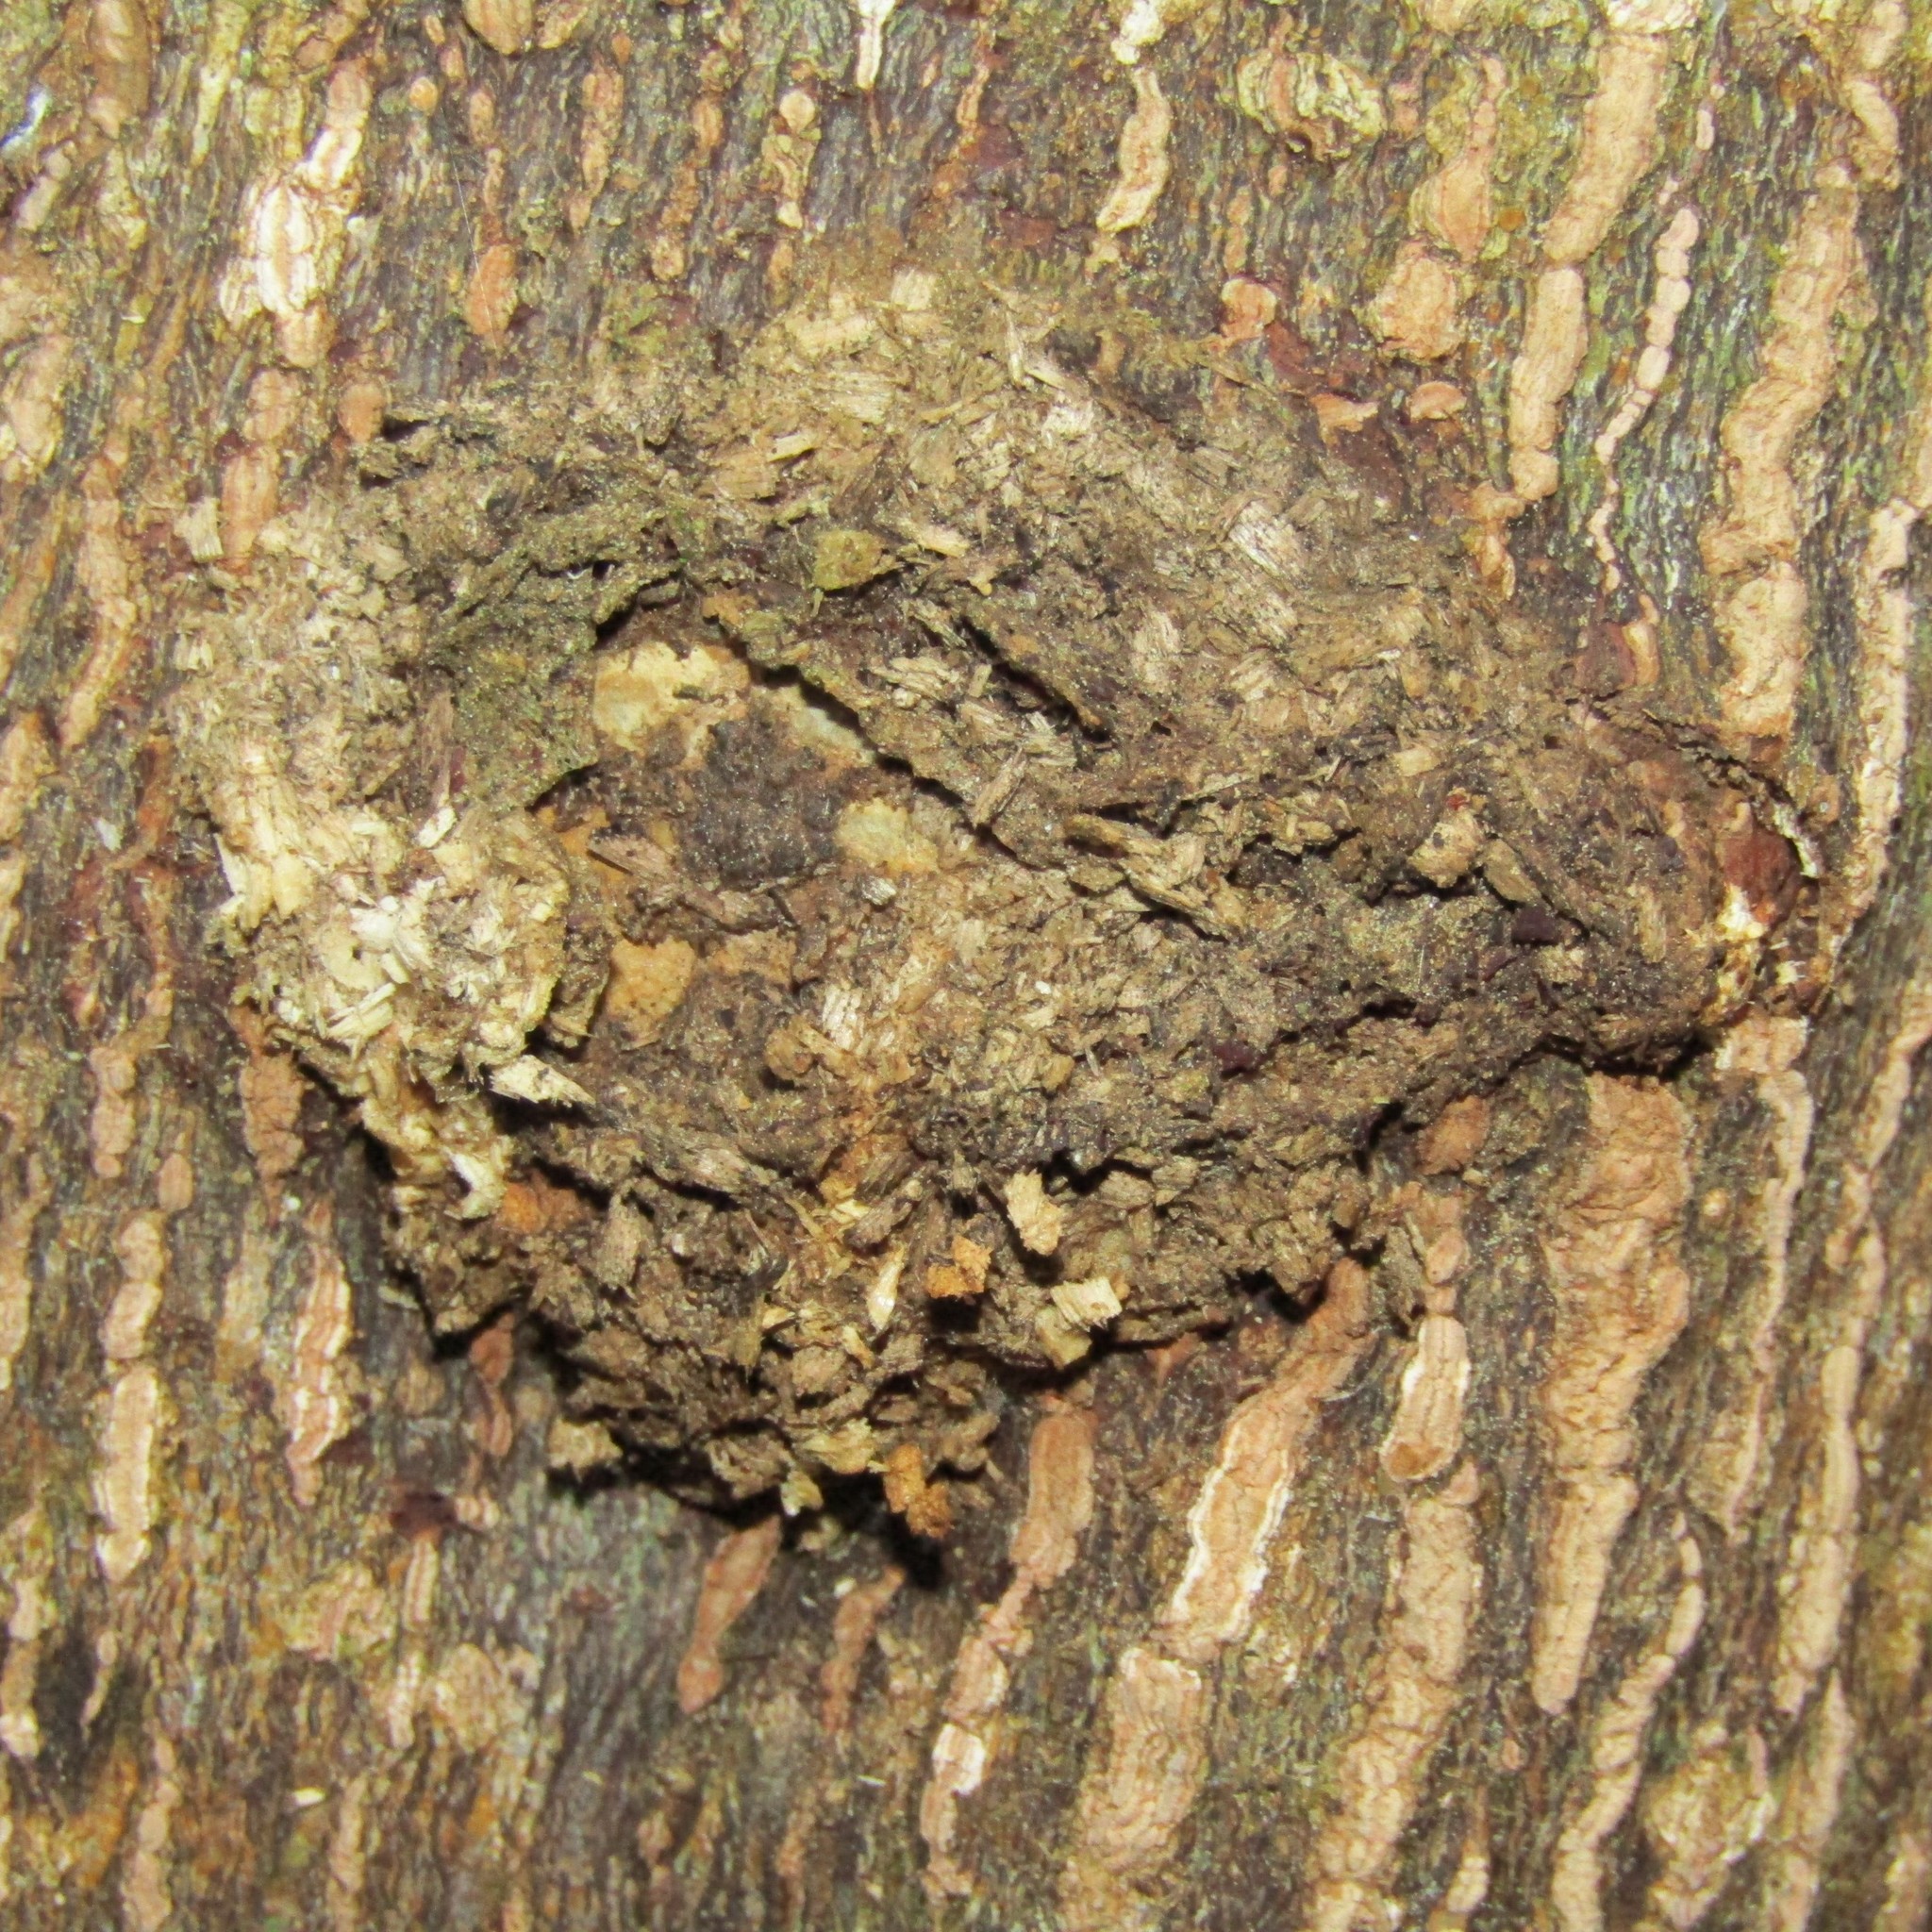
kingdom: Animalia
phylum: Arthropoda
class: Insecta
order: Lepidoptera
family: Hepialidae
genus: Aenetus
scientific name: Aenetus virescens
